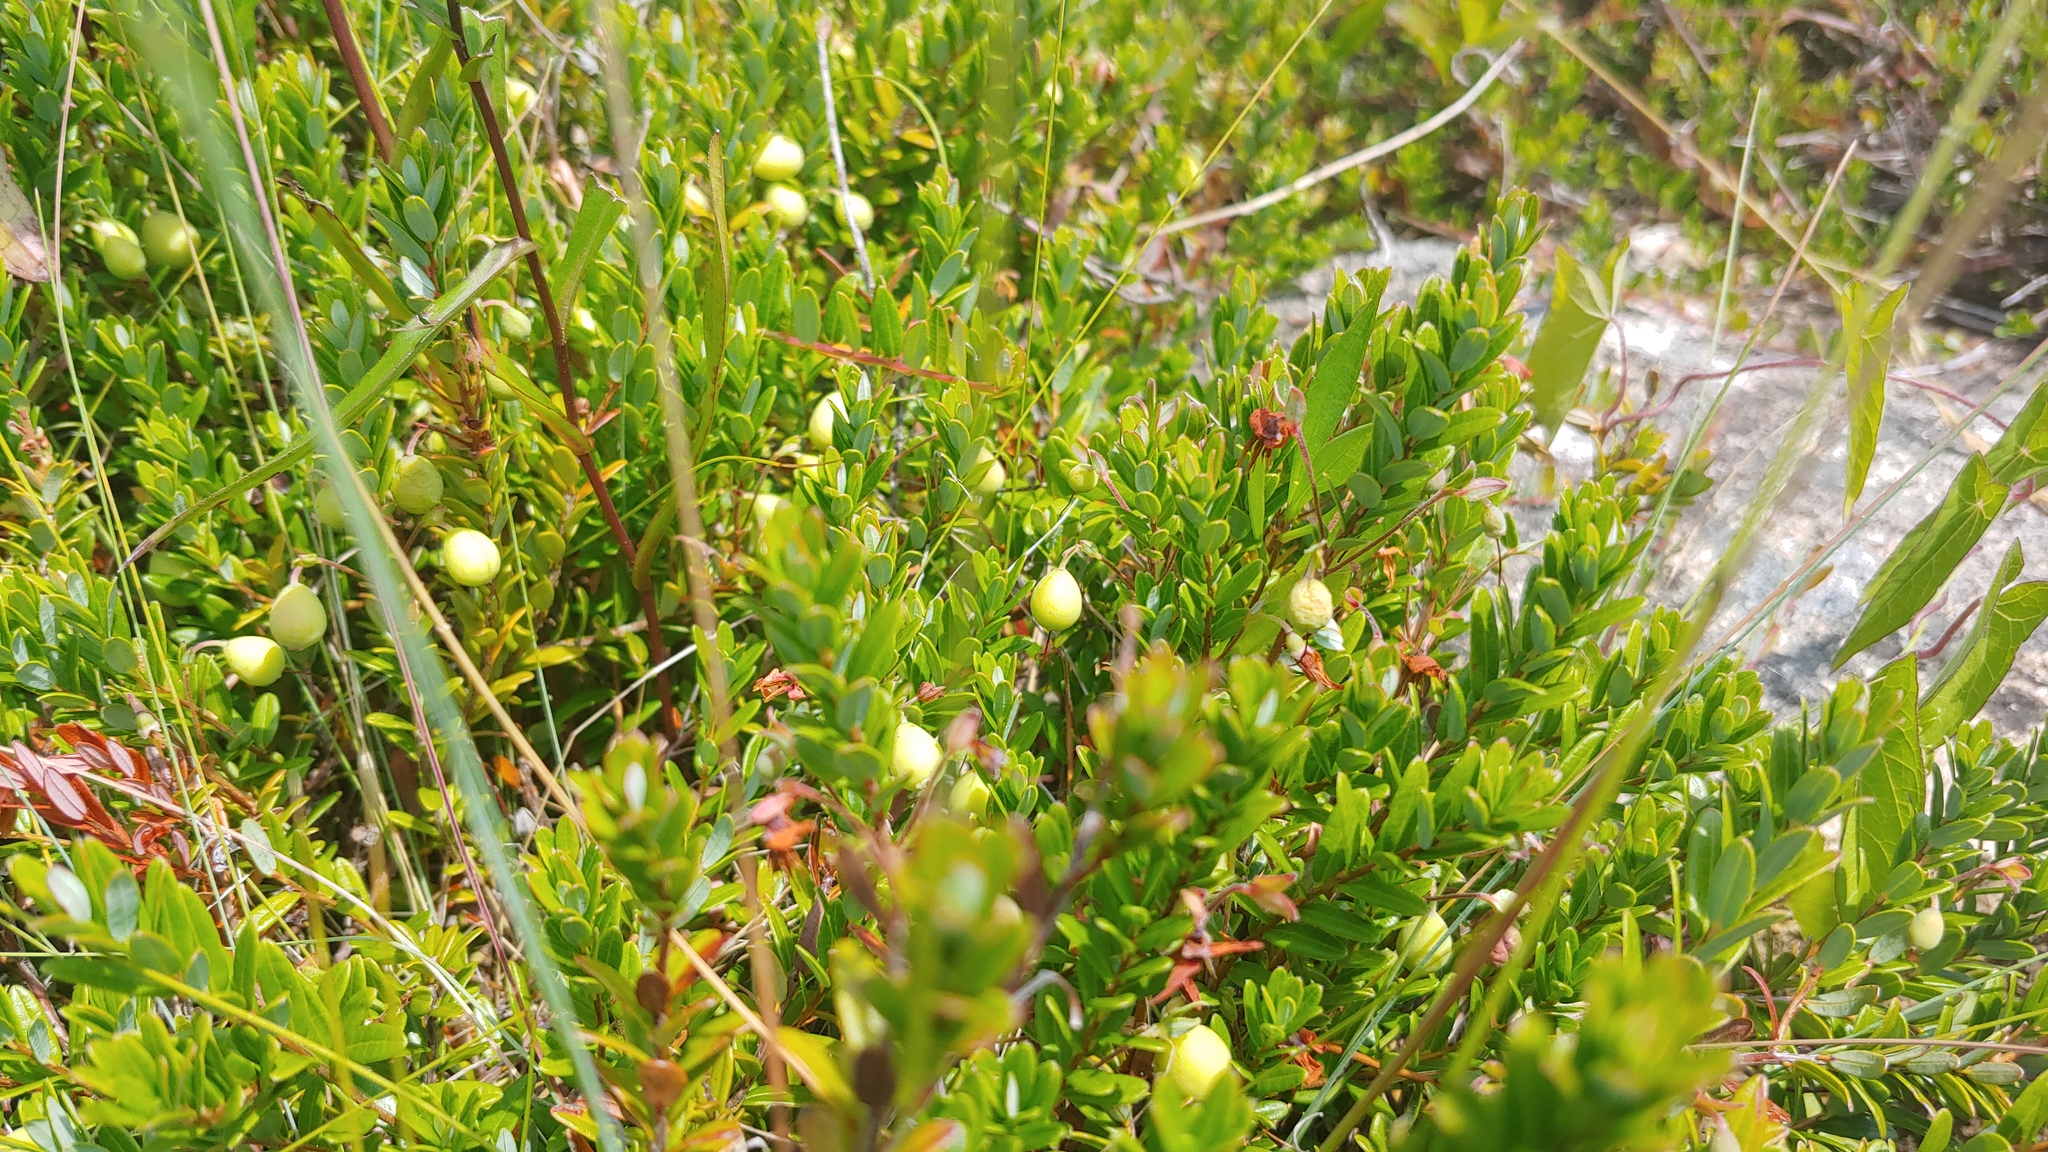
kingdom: Plantae
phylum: Tracheophyta
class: Magnoliopsida
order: Ericales
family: Ericaceae
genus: Vaccinium
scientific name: Vaccinium macrocarpon
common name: American cranberry
